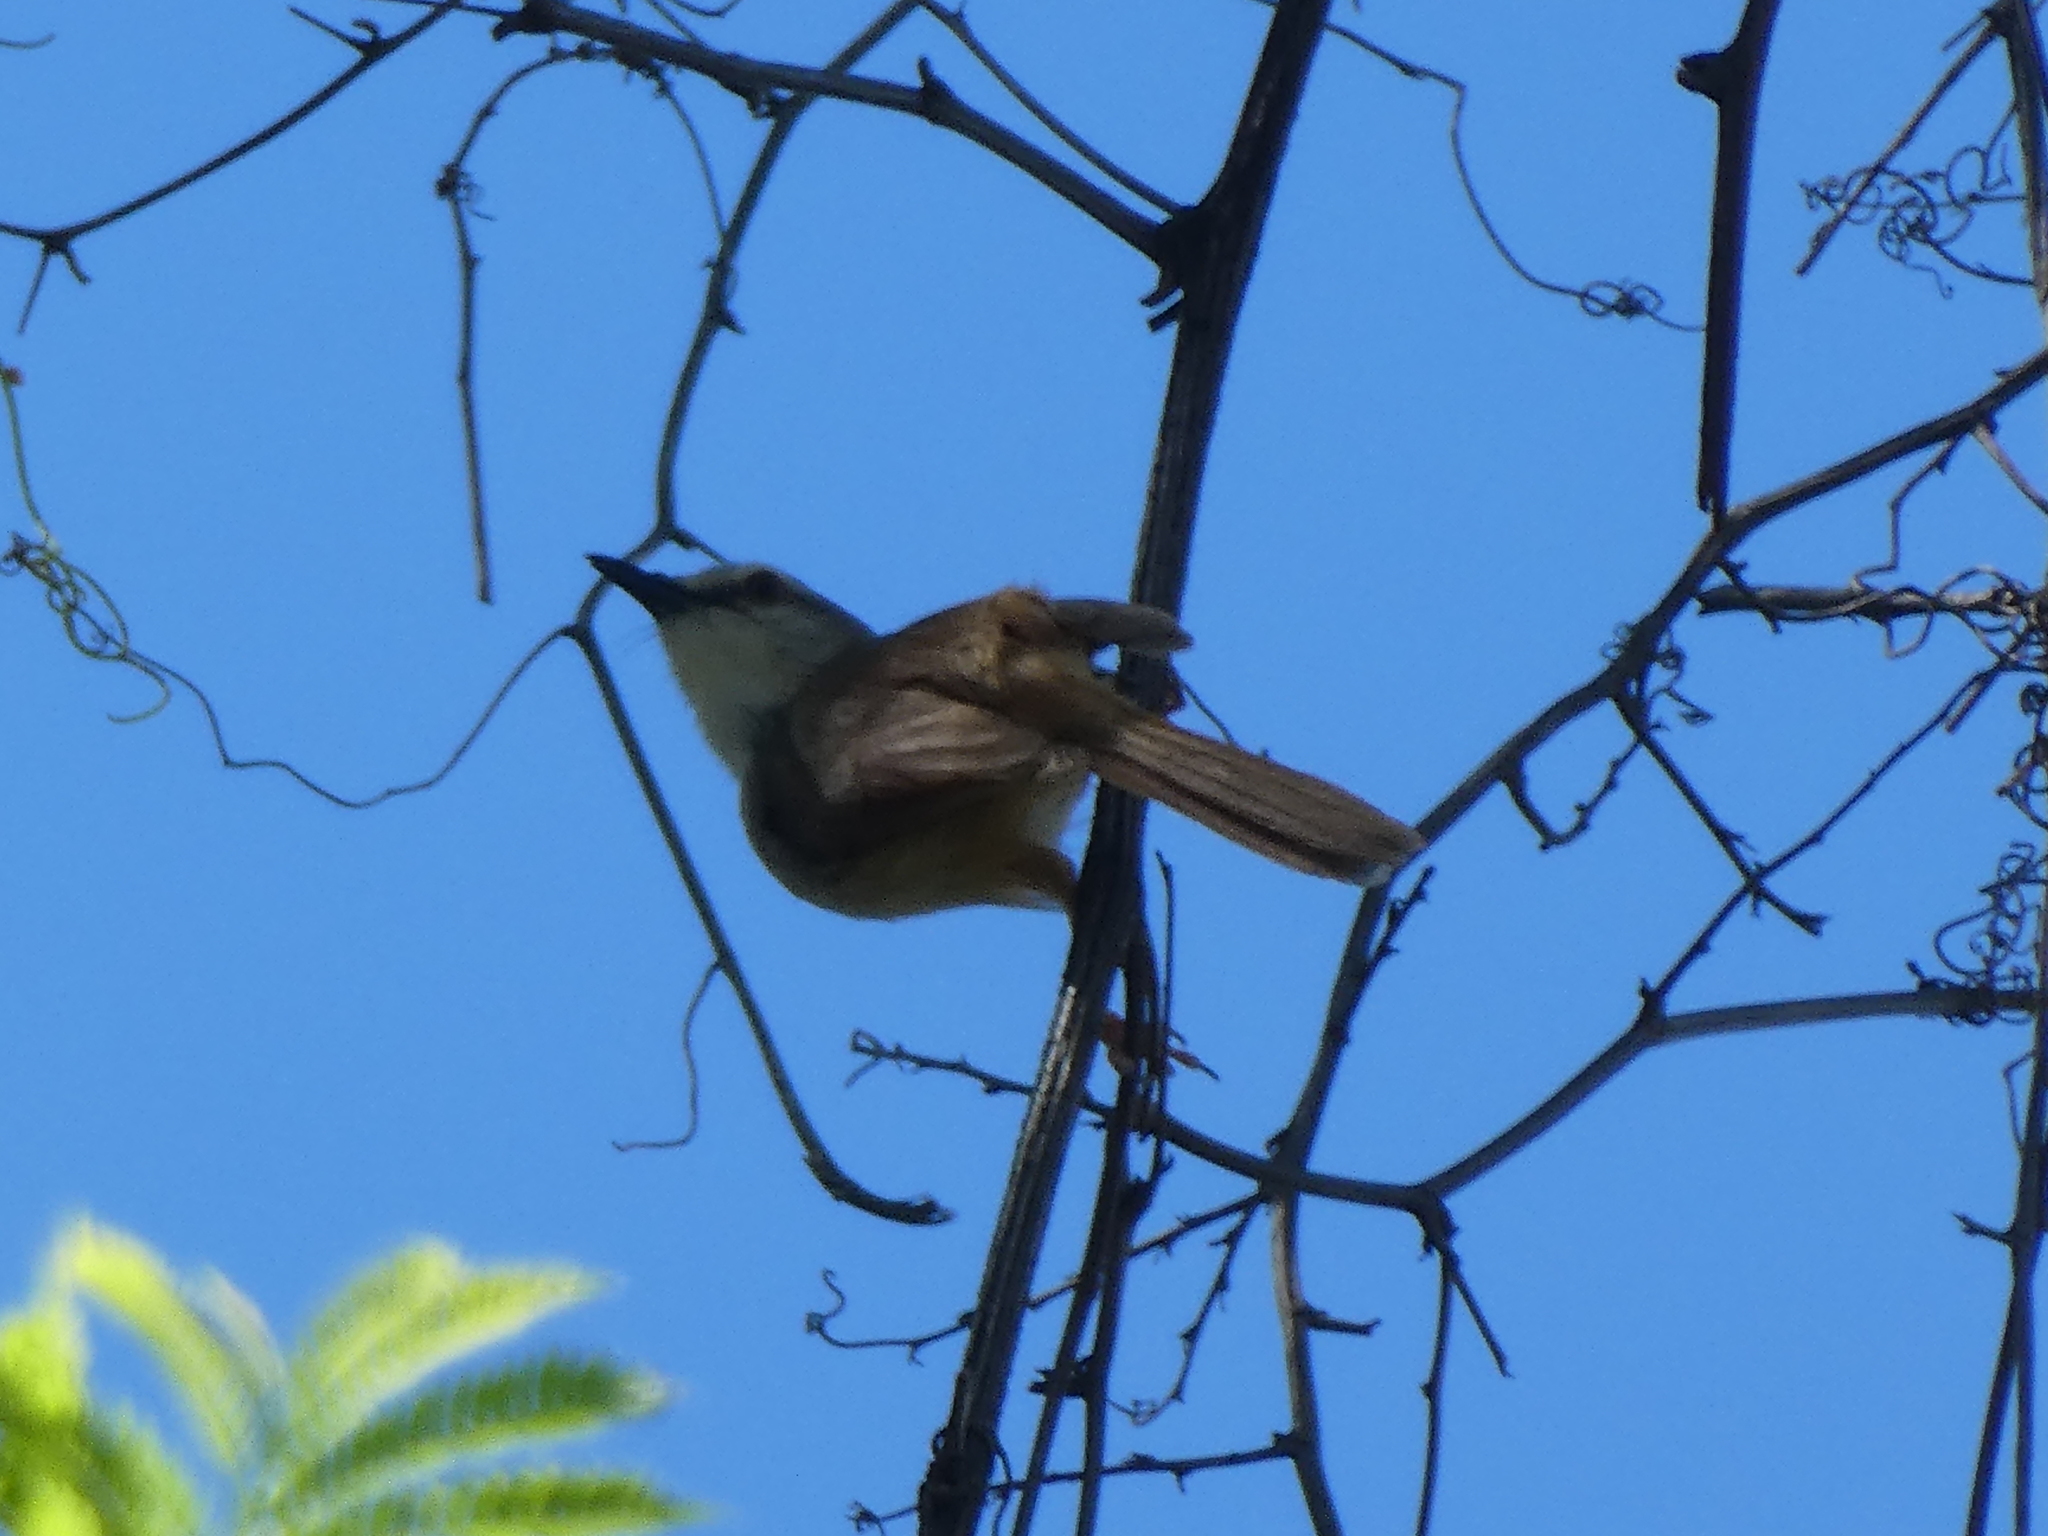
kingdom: Animalia
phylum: Chordata
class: Aves
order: Passeriformes
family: Cisticolidae
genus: Prinia
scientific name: Prinia subflava
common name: Tawny-flanked prinia
